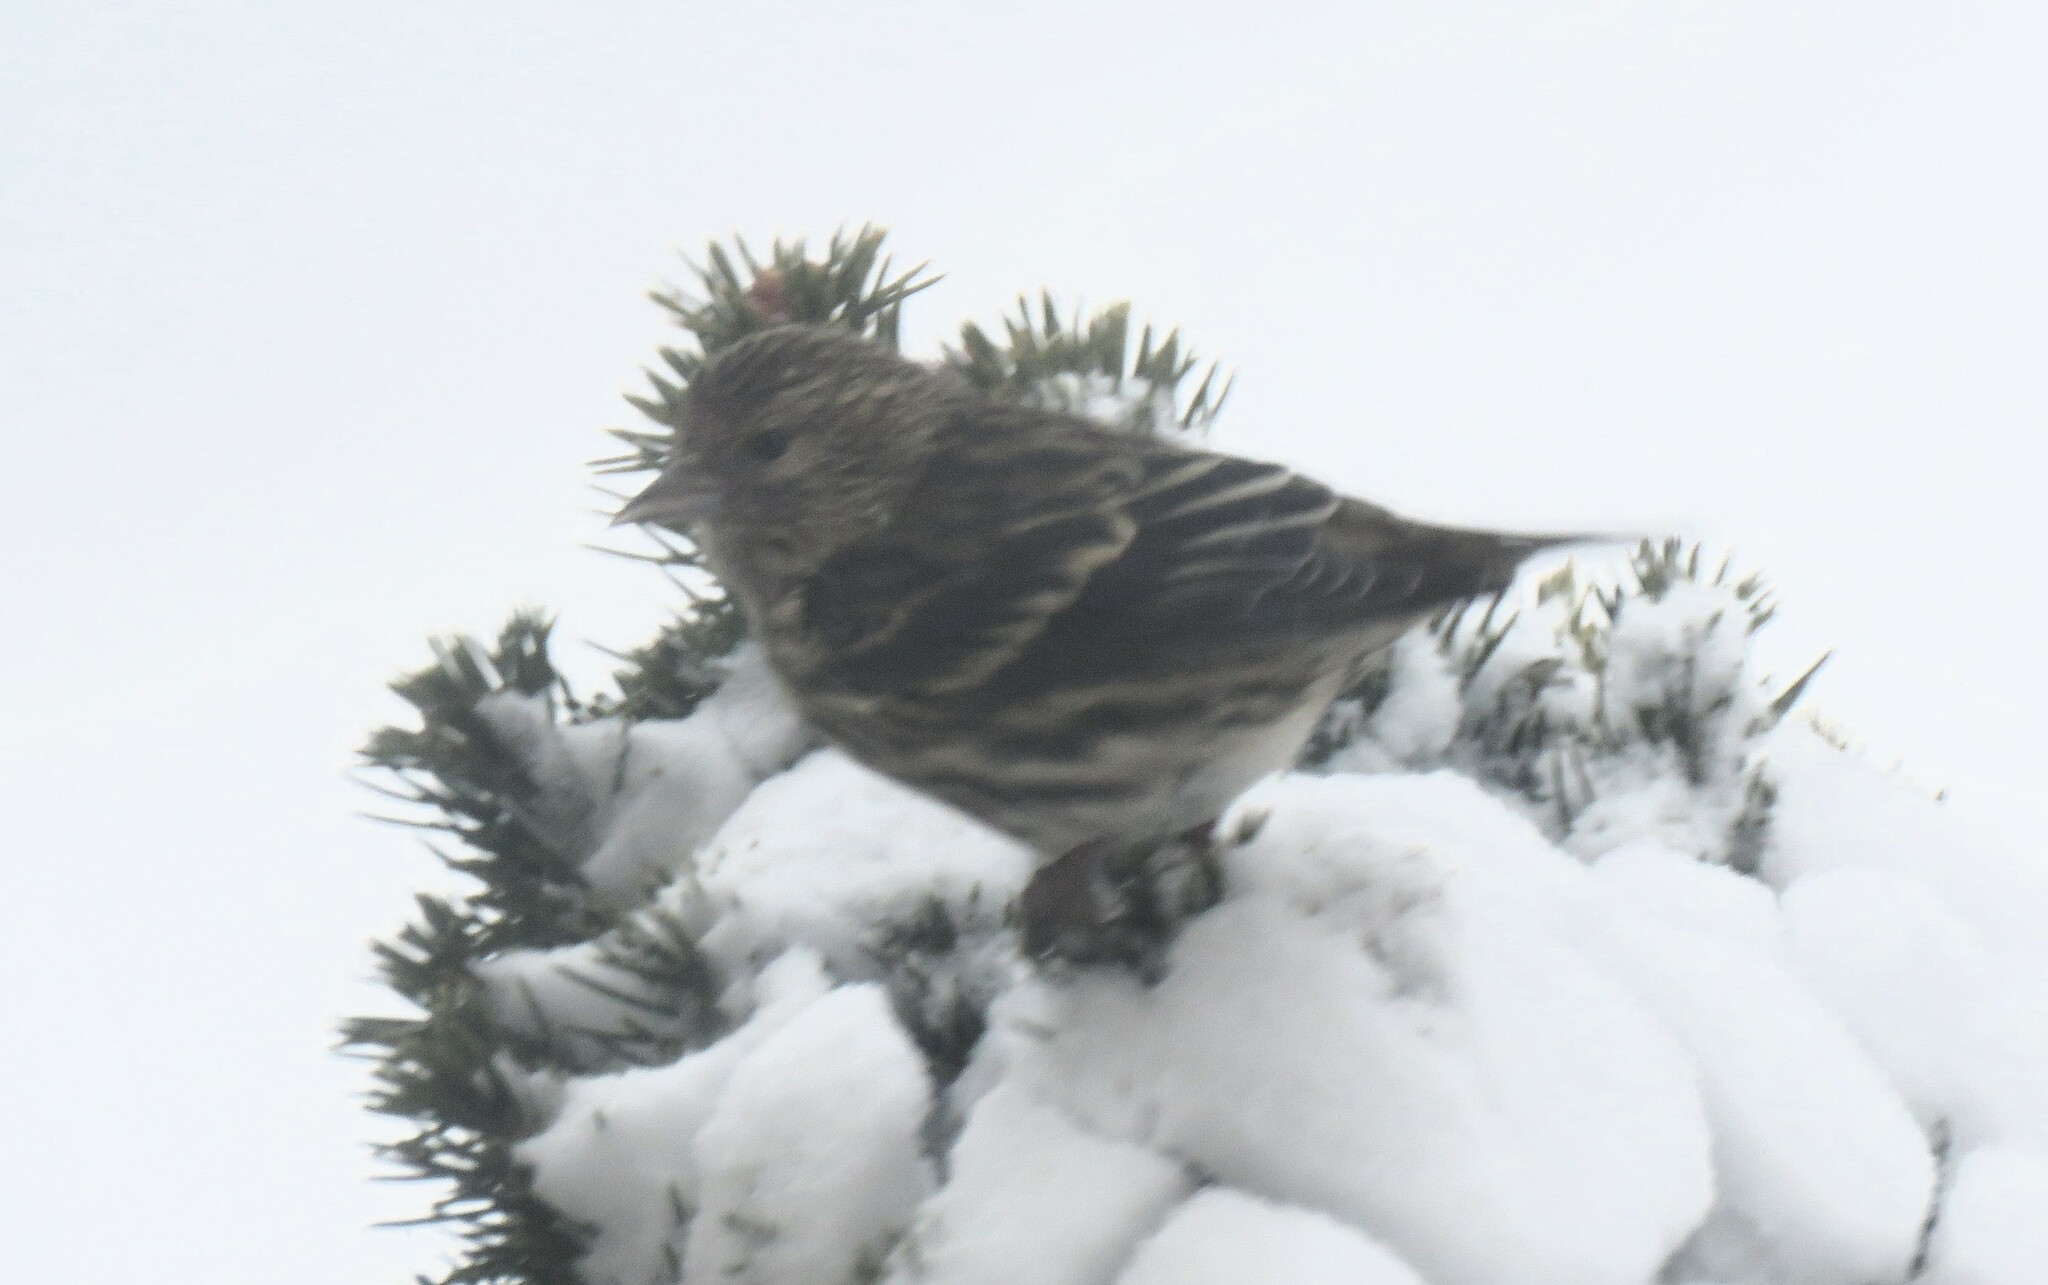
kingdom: Animalia
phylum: Chordata
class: Aves
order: Passeriformes
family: Fringillidae
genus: Spinus
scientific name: Spinus pinus
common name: Pine siskin
